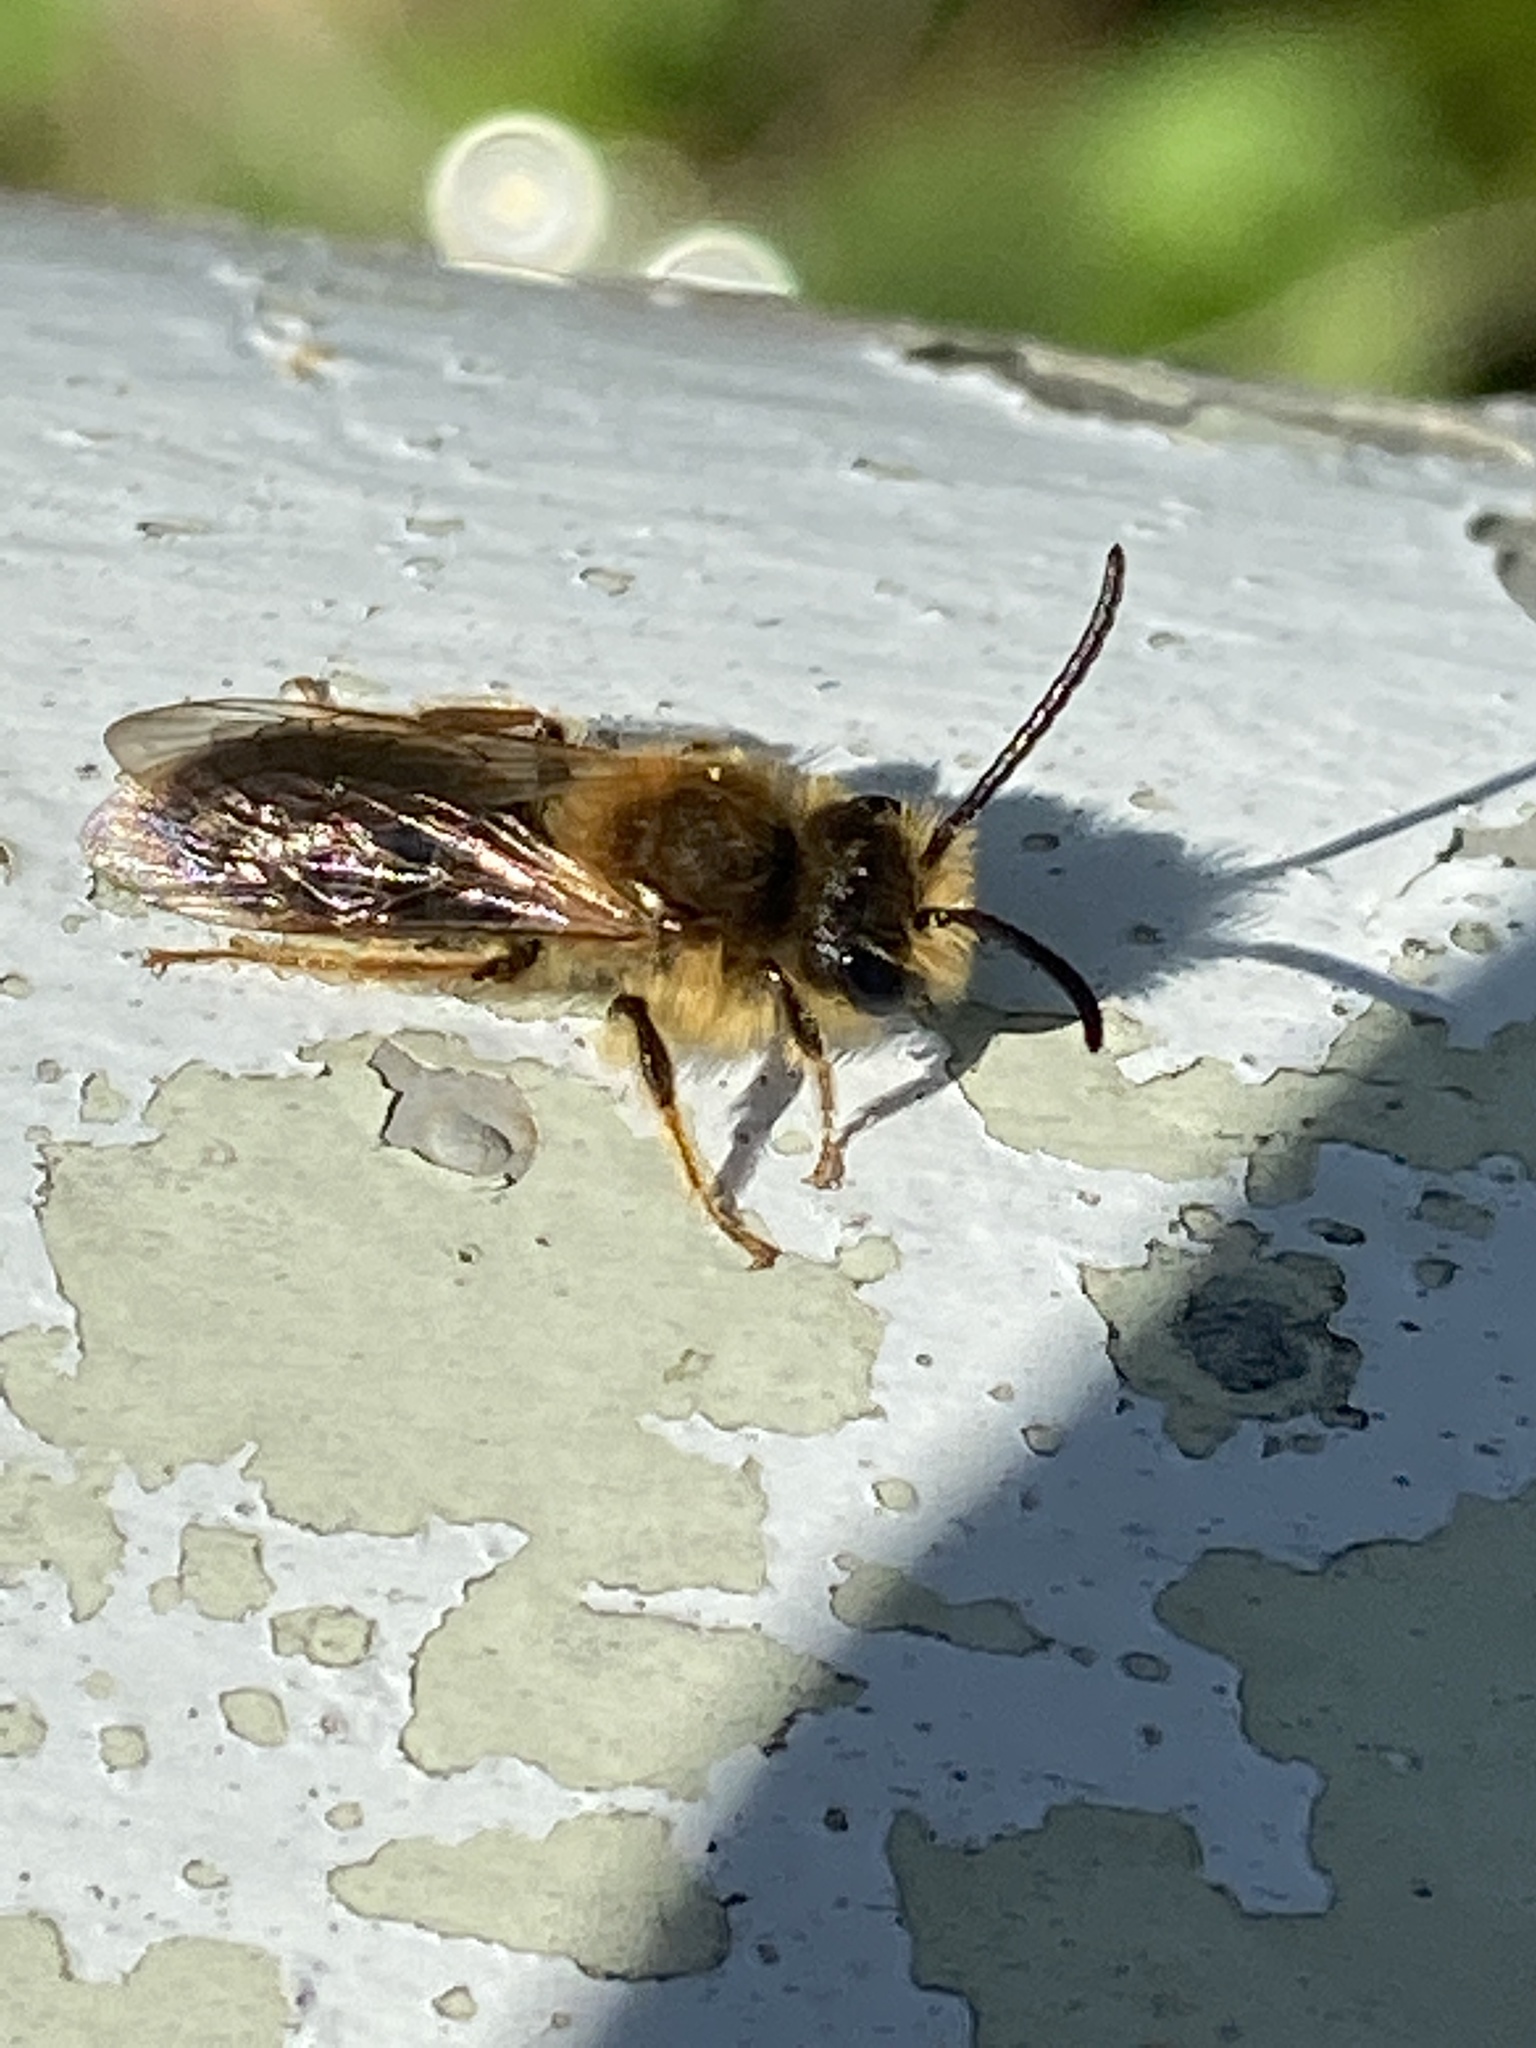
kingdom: Animalia
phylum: Arthropoda
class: Insecta
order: Hymenoptera
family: Andrenidae
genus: Andrena
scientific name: Andrena haemorrhoa
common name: Early mining bee
